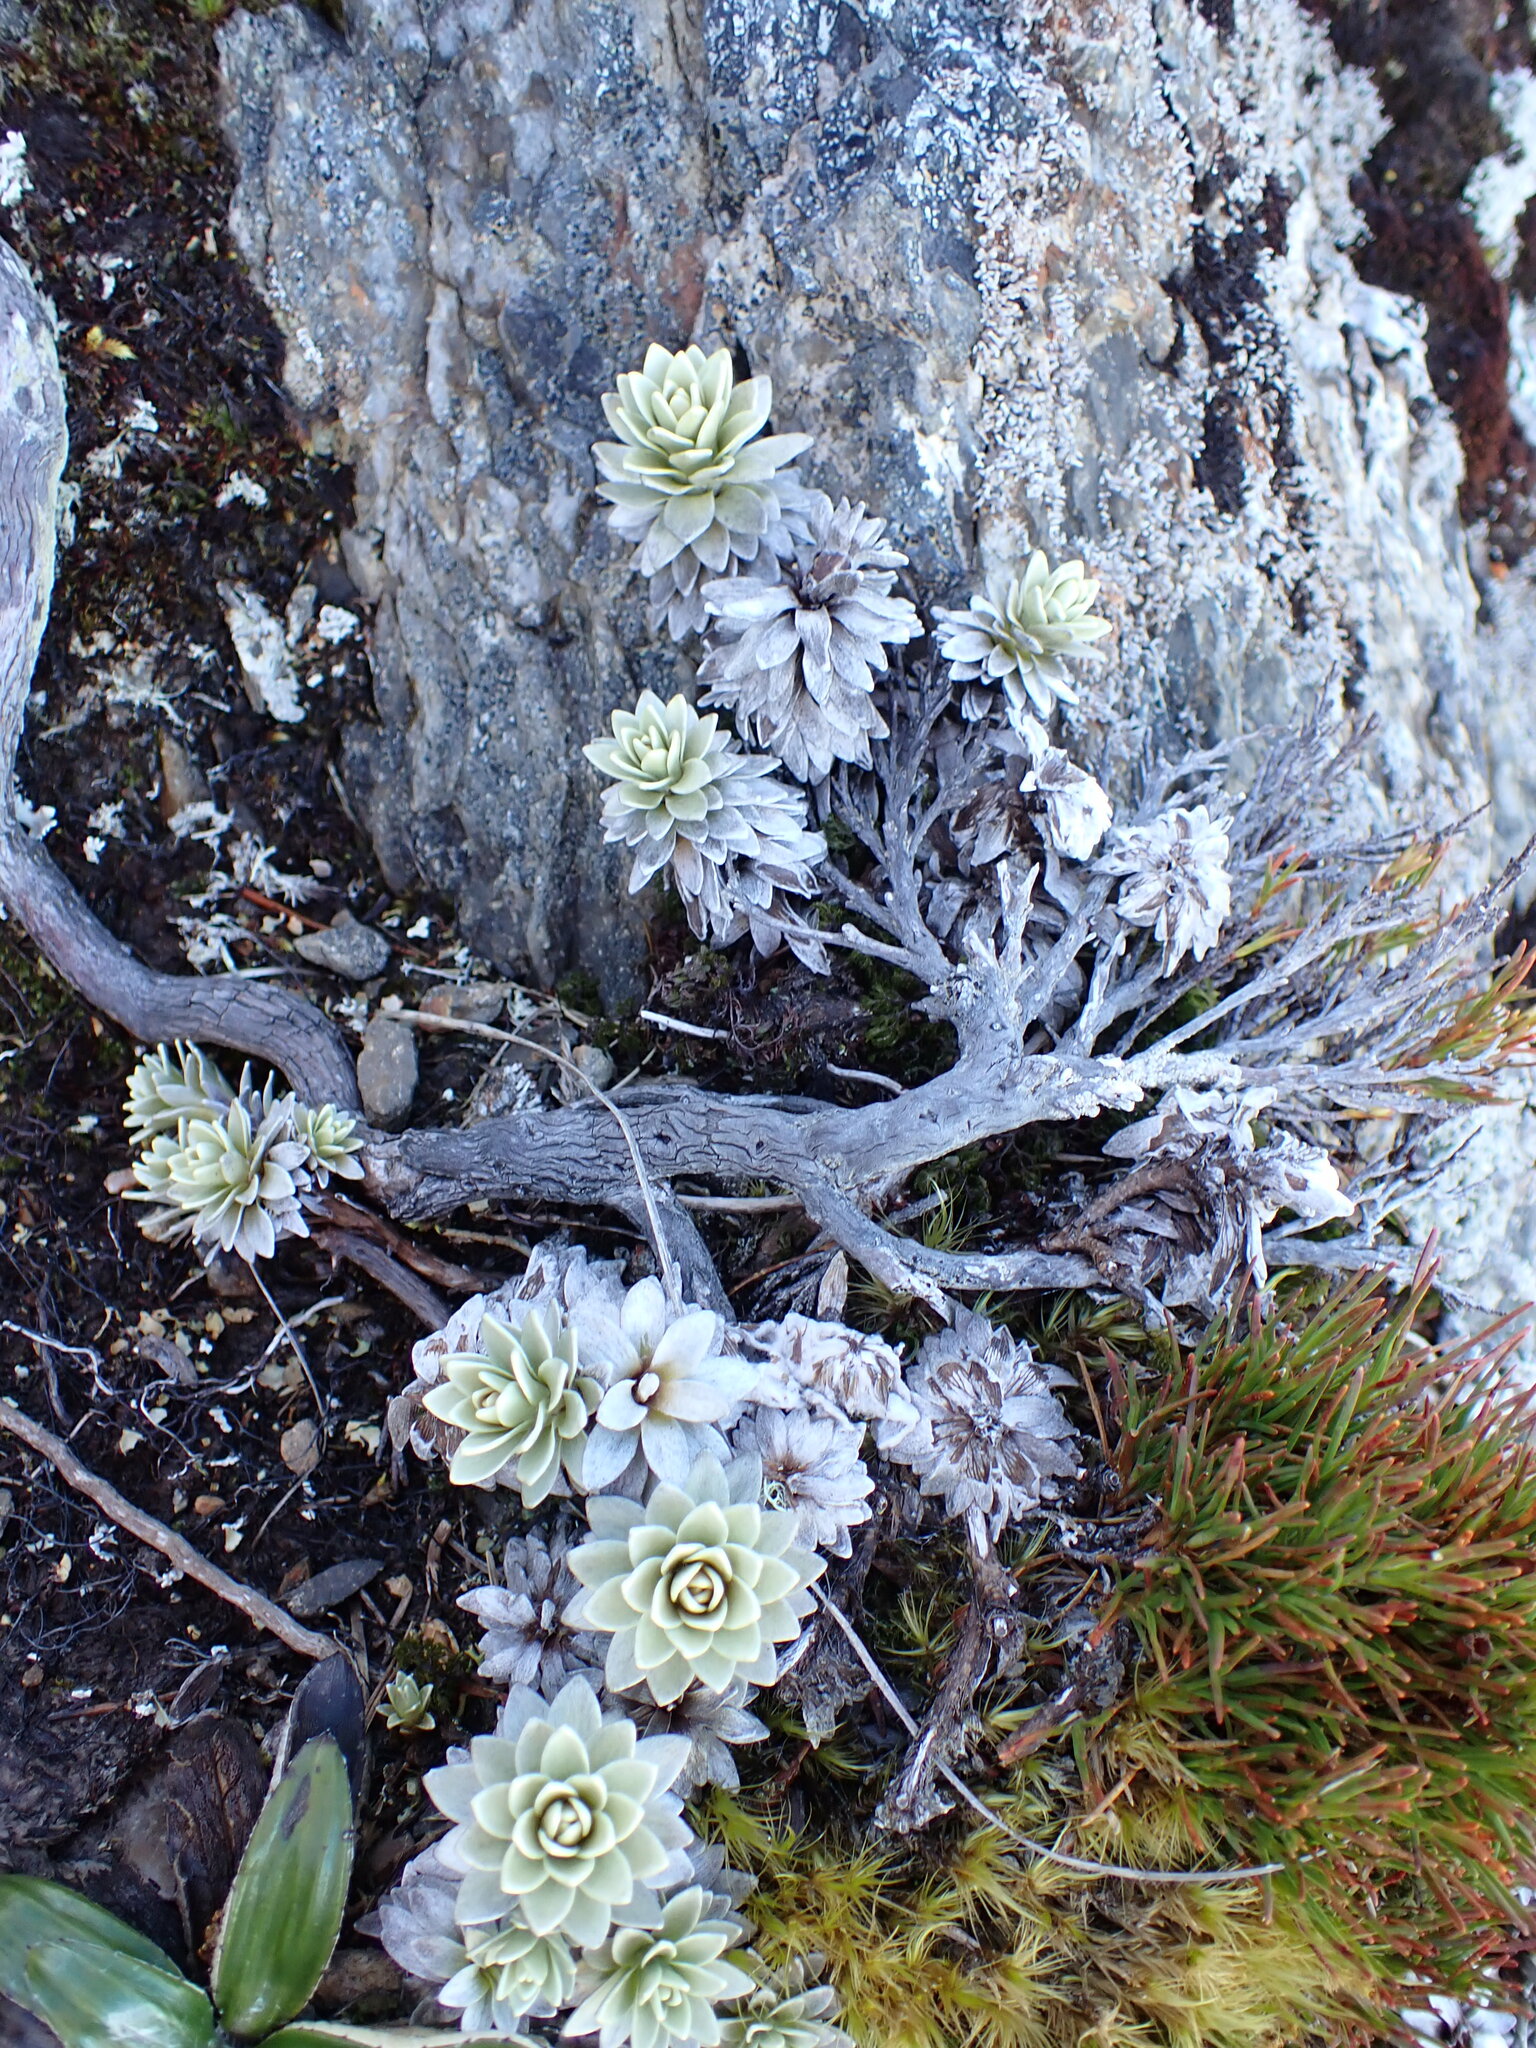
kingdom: Plantae
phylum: Tracheophyta
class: Magnoliopsida
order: Asterales
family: Asteraceae
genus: Leucogenes
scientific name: Leucogenes leontopodium
